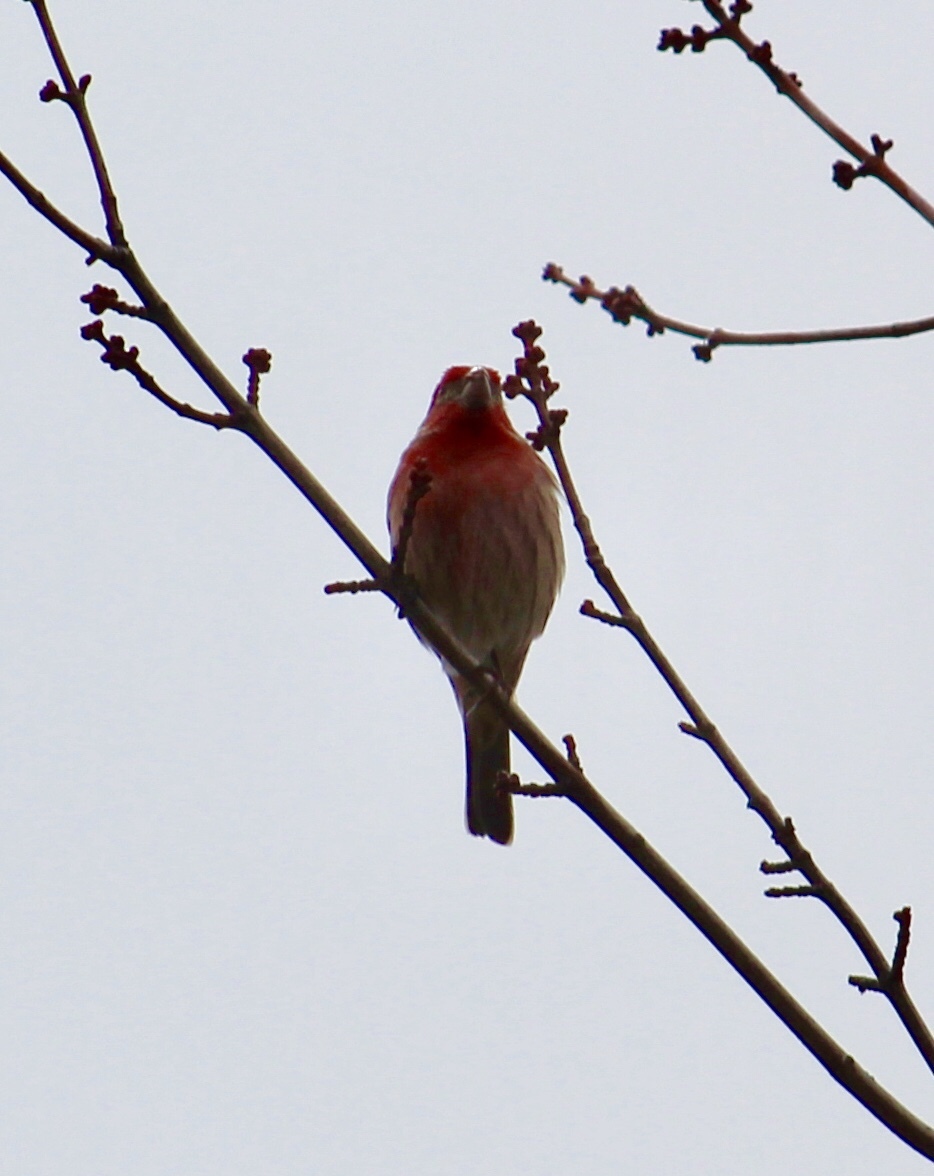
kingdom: Animalia
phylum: Chordata
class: Aves
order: Passeriformes
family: Fringillidae
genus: Haemorhous
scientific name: Haemorhous mexicanus
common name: House finch
